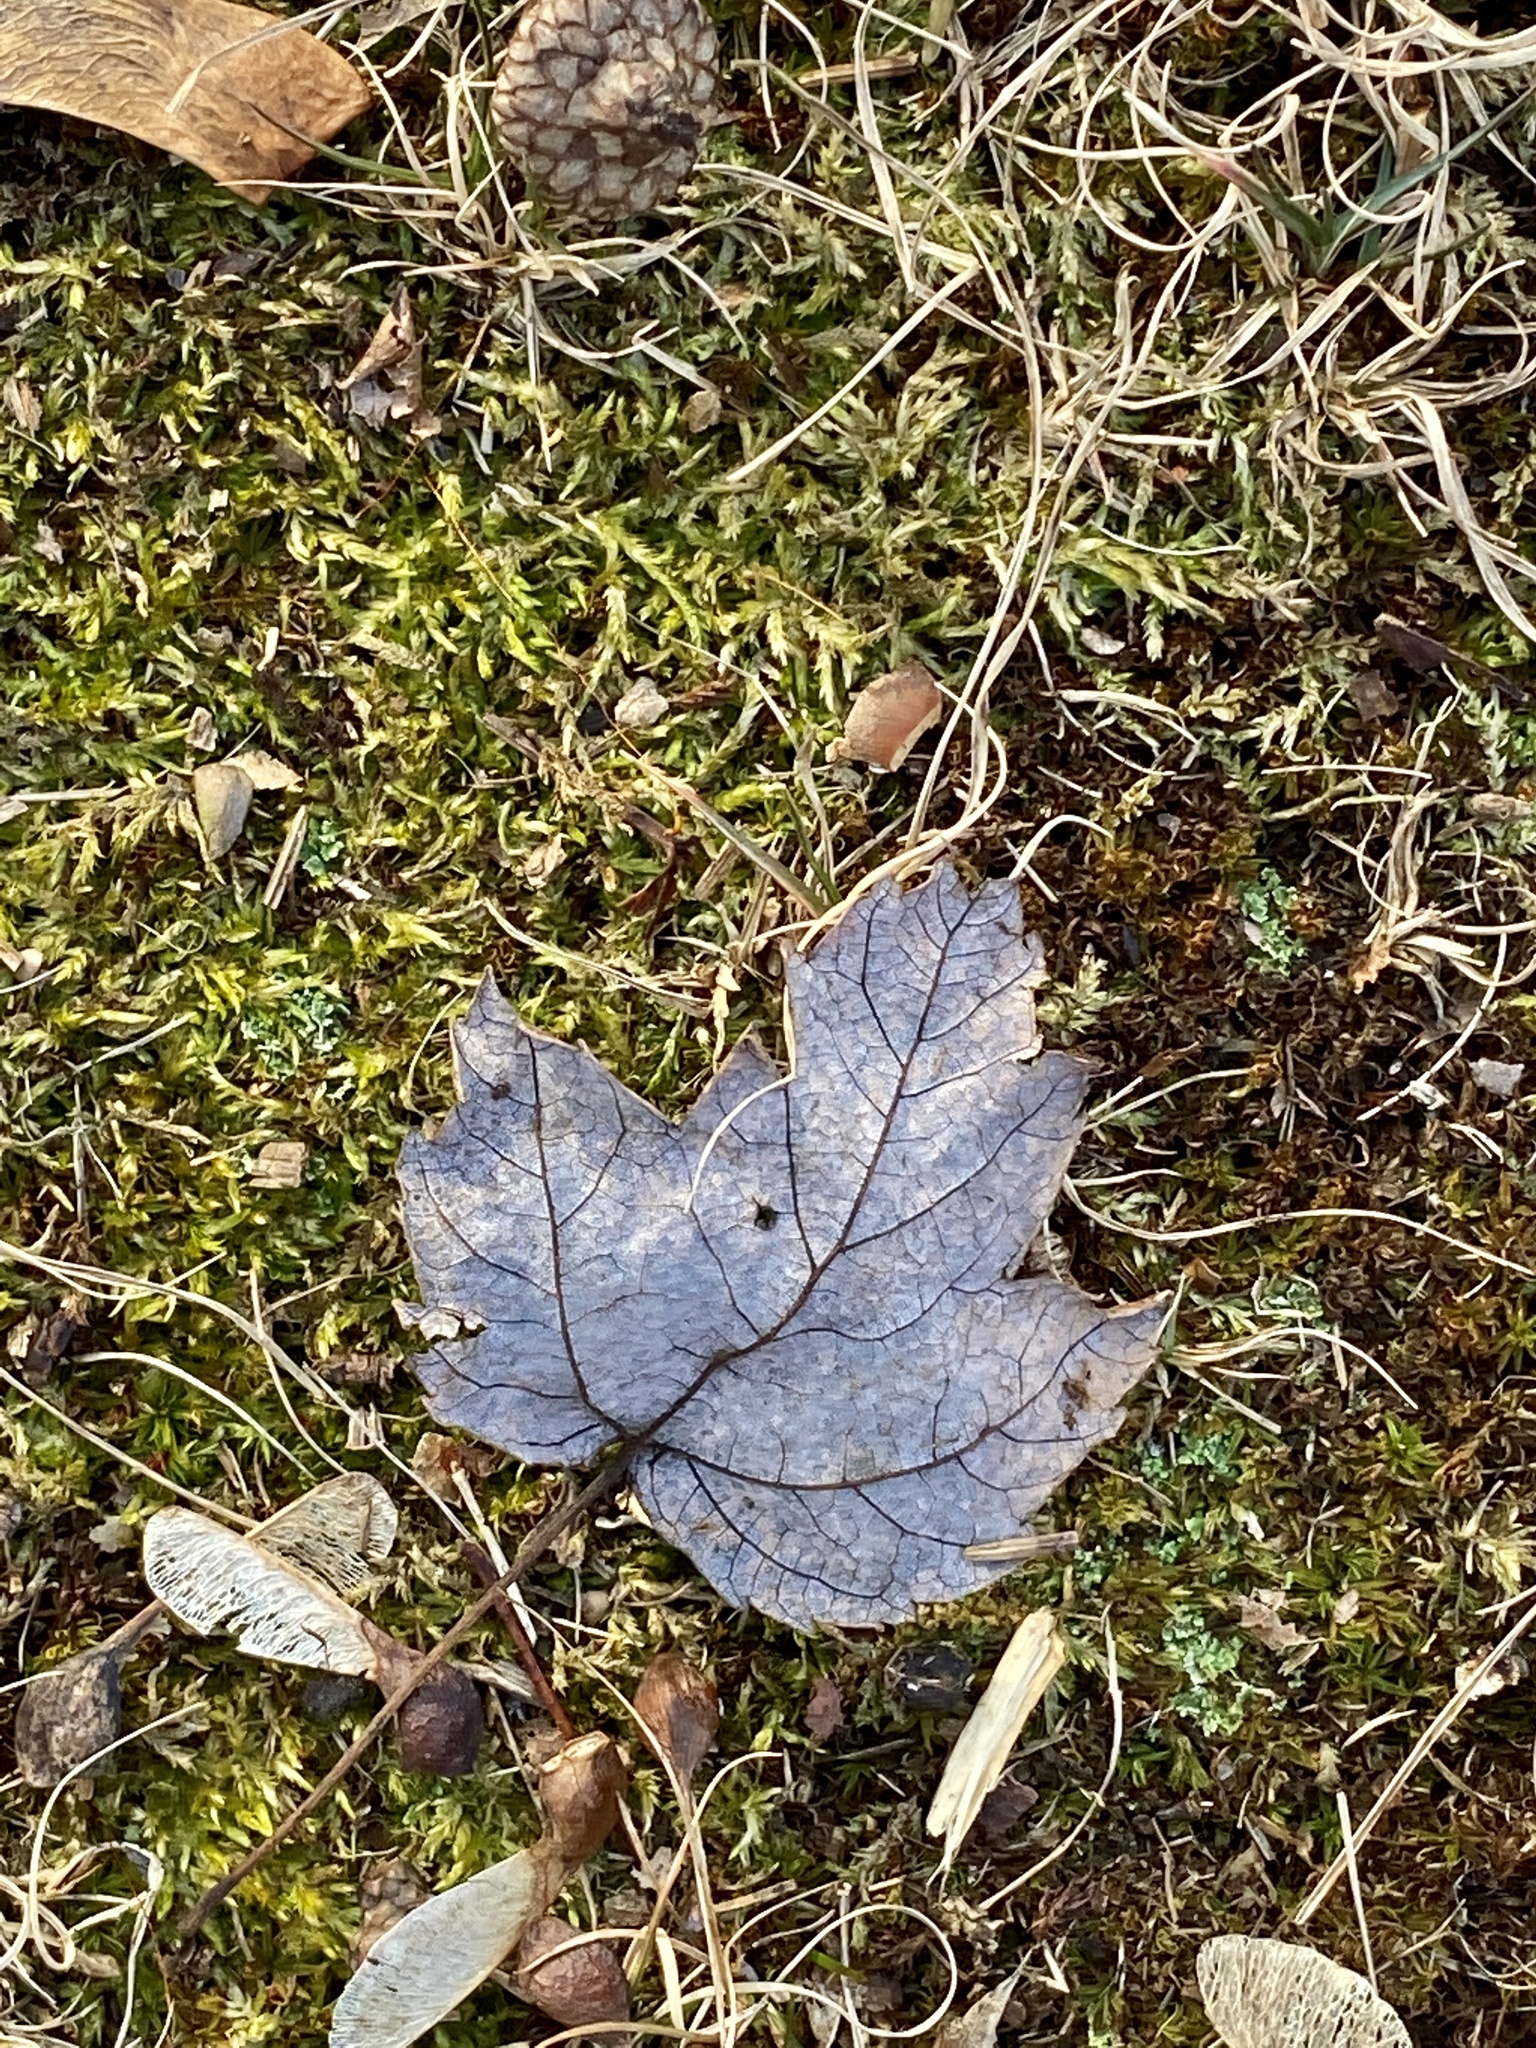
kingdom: Plantae
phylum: Tracheophyta
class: Magnoliopsida
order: Sapindales
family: Sapindaceae
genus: Acer
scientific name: Acer rubrum
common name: Red maple
